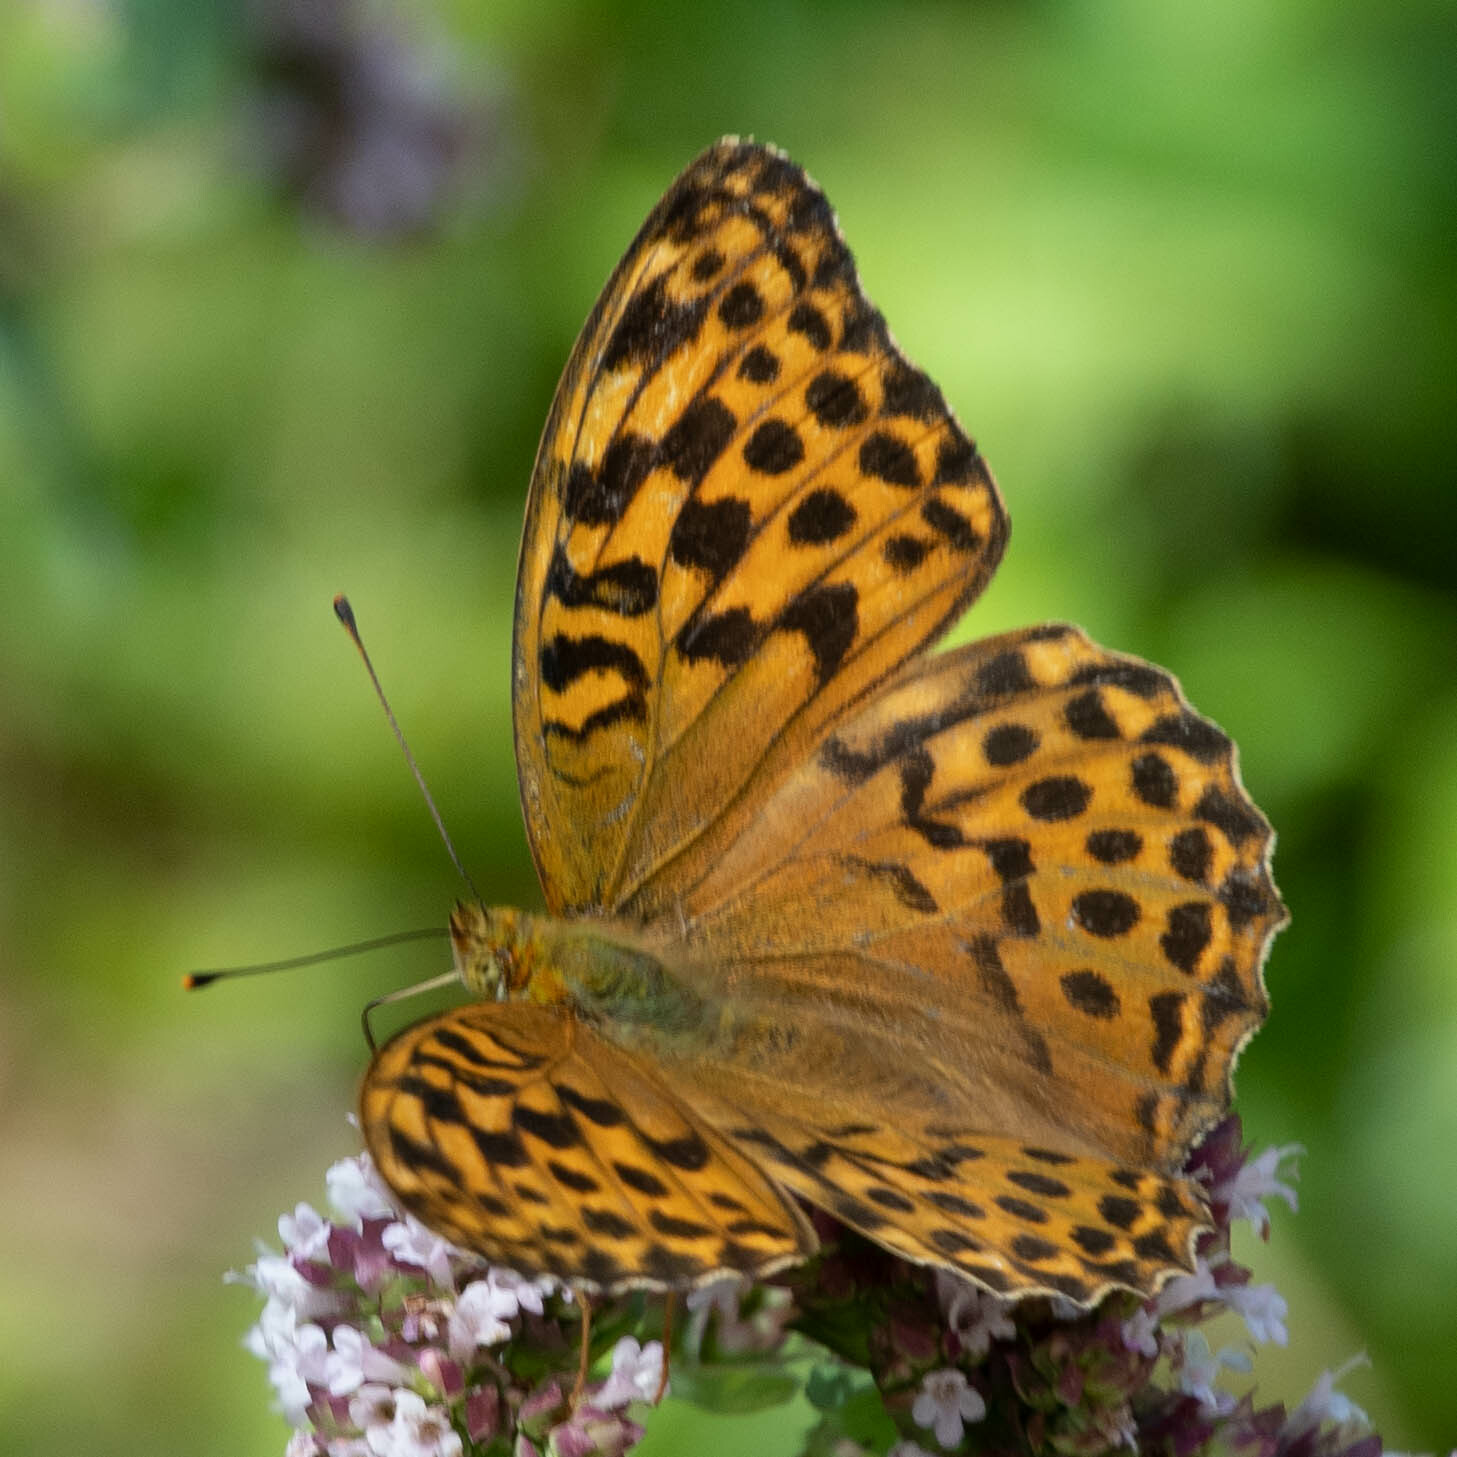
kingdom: Animalia
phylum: Arthropoda
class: Insecta
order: Lepidoptera
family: Nymphalidae
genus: Argynnis
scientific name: Argynnis paphia
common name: Silver-washed fritillary
